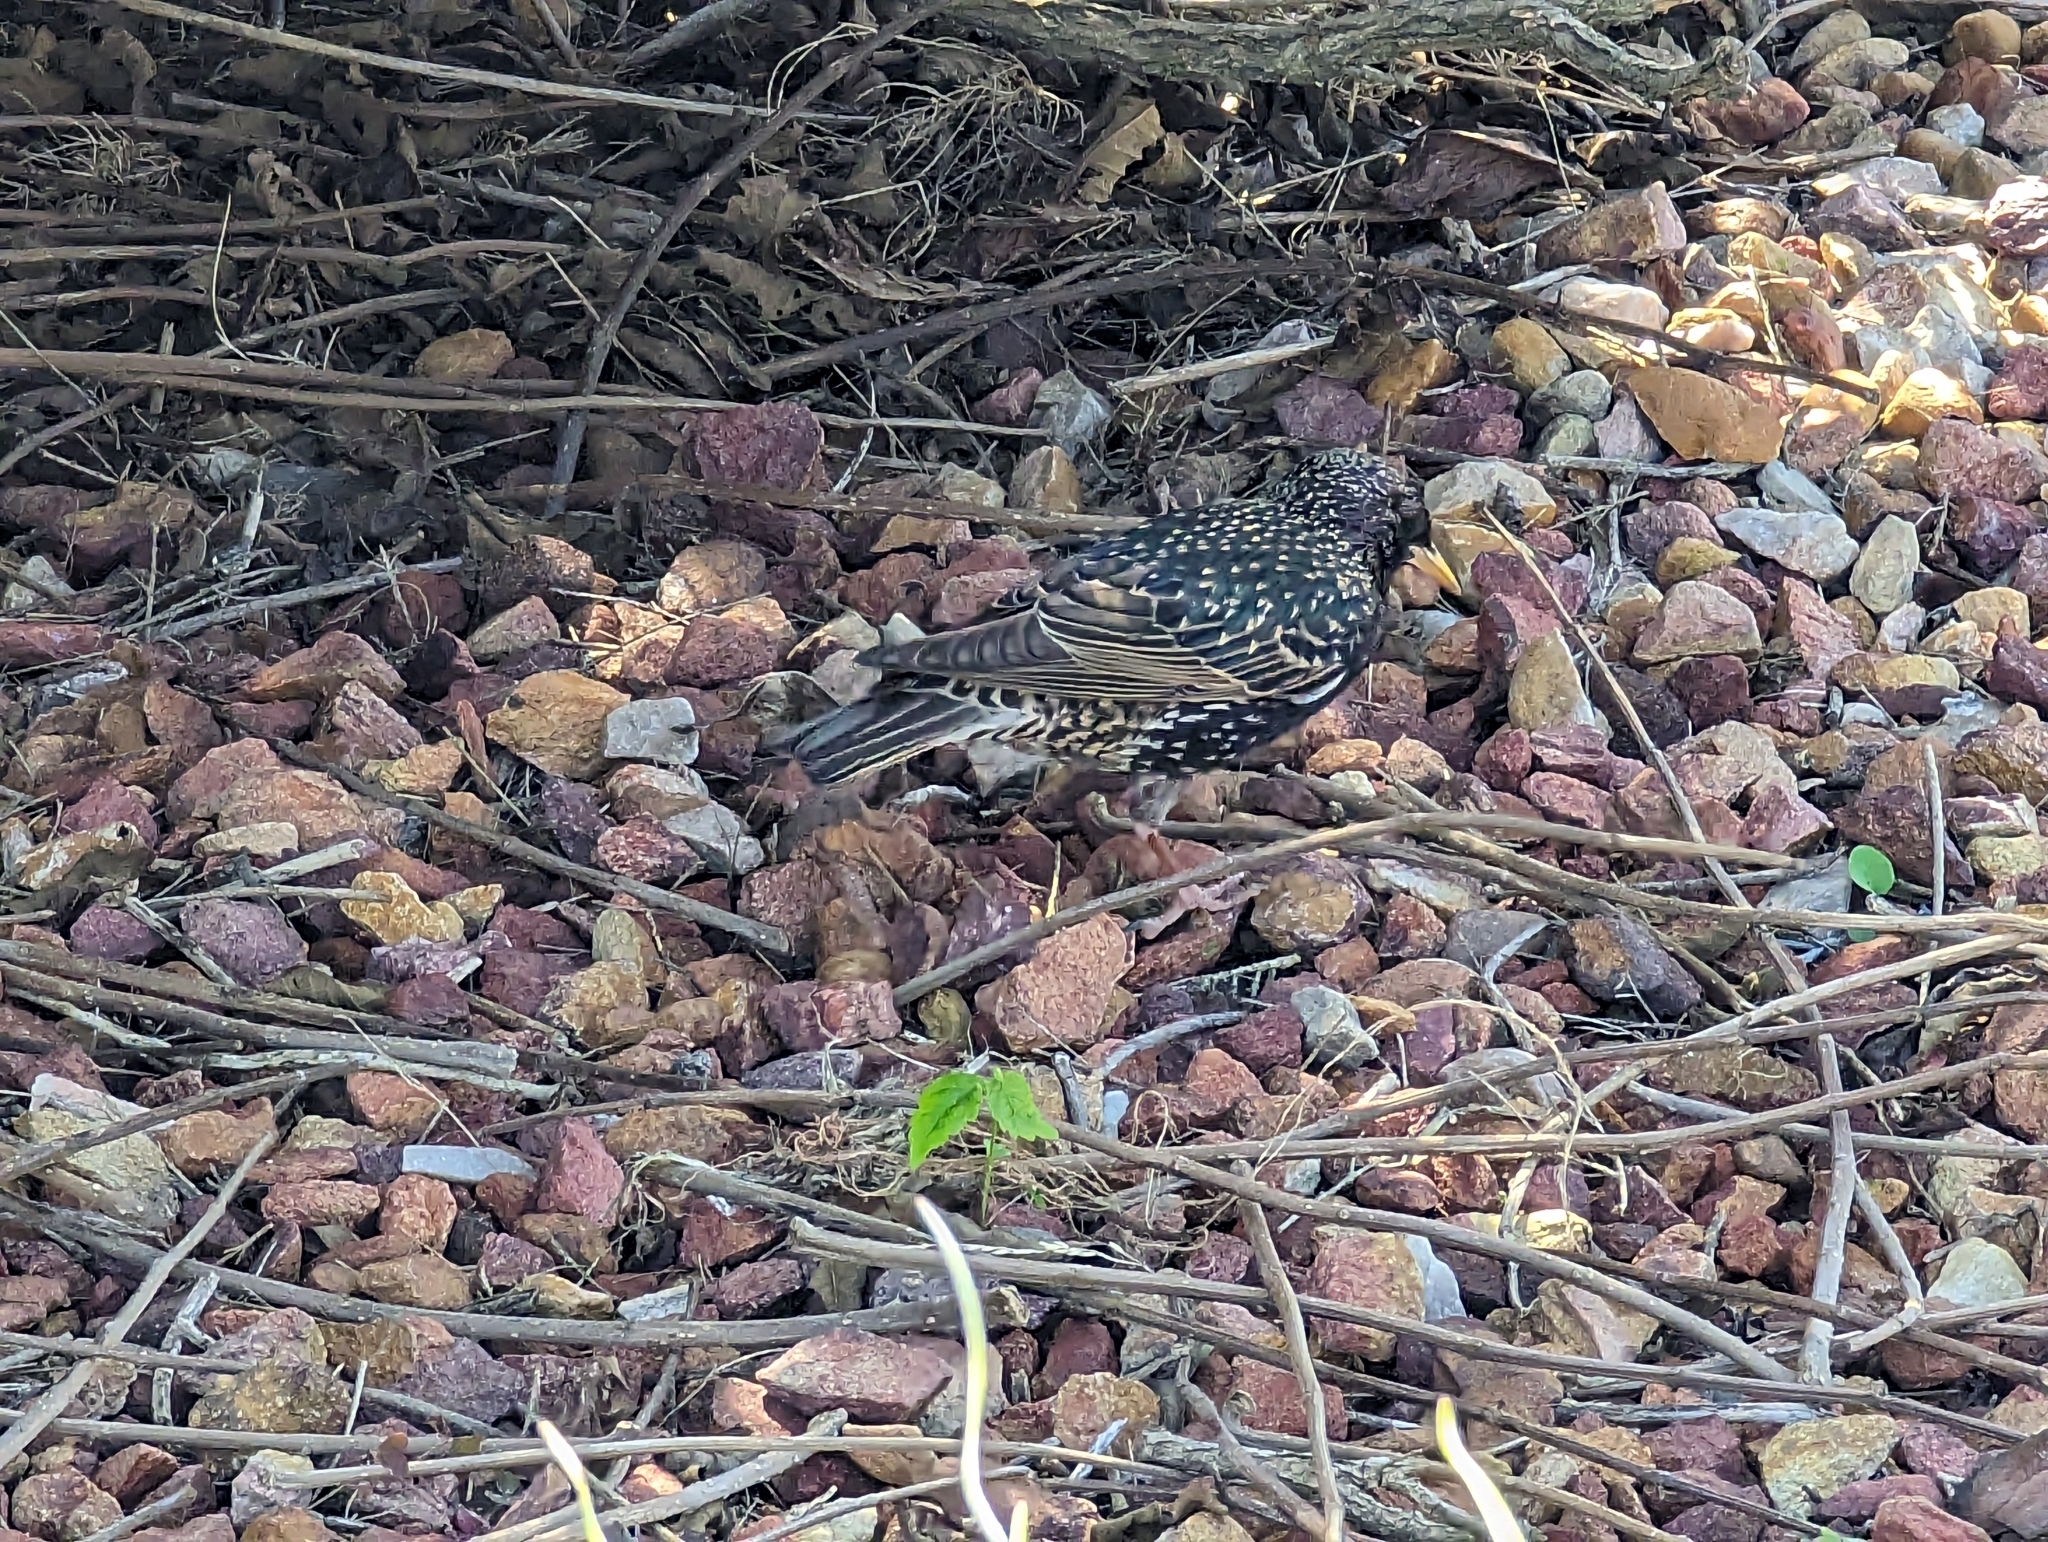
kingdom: Animalia
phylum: Chordata
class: Aves
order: Passeriformes
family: Sturnidae
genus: Sturnus
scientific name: Sturnus vulgaris
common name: Common starling
